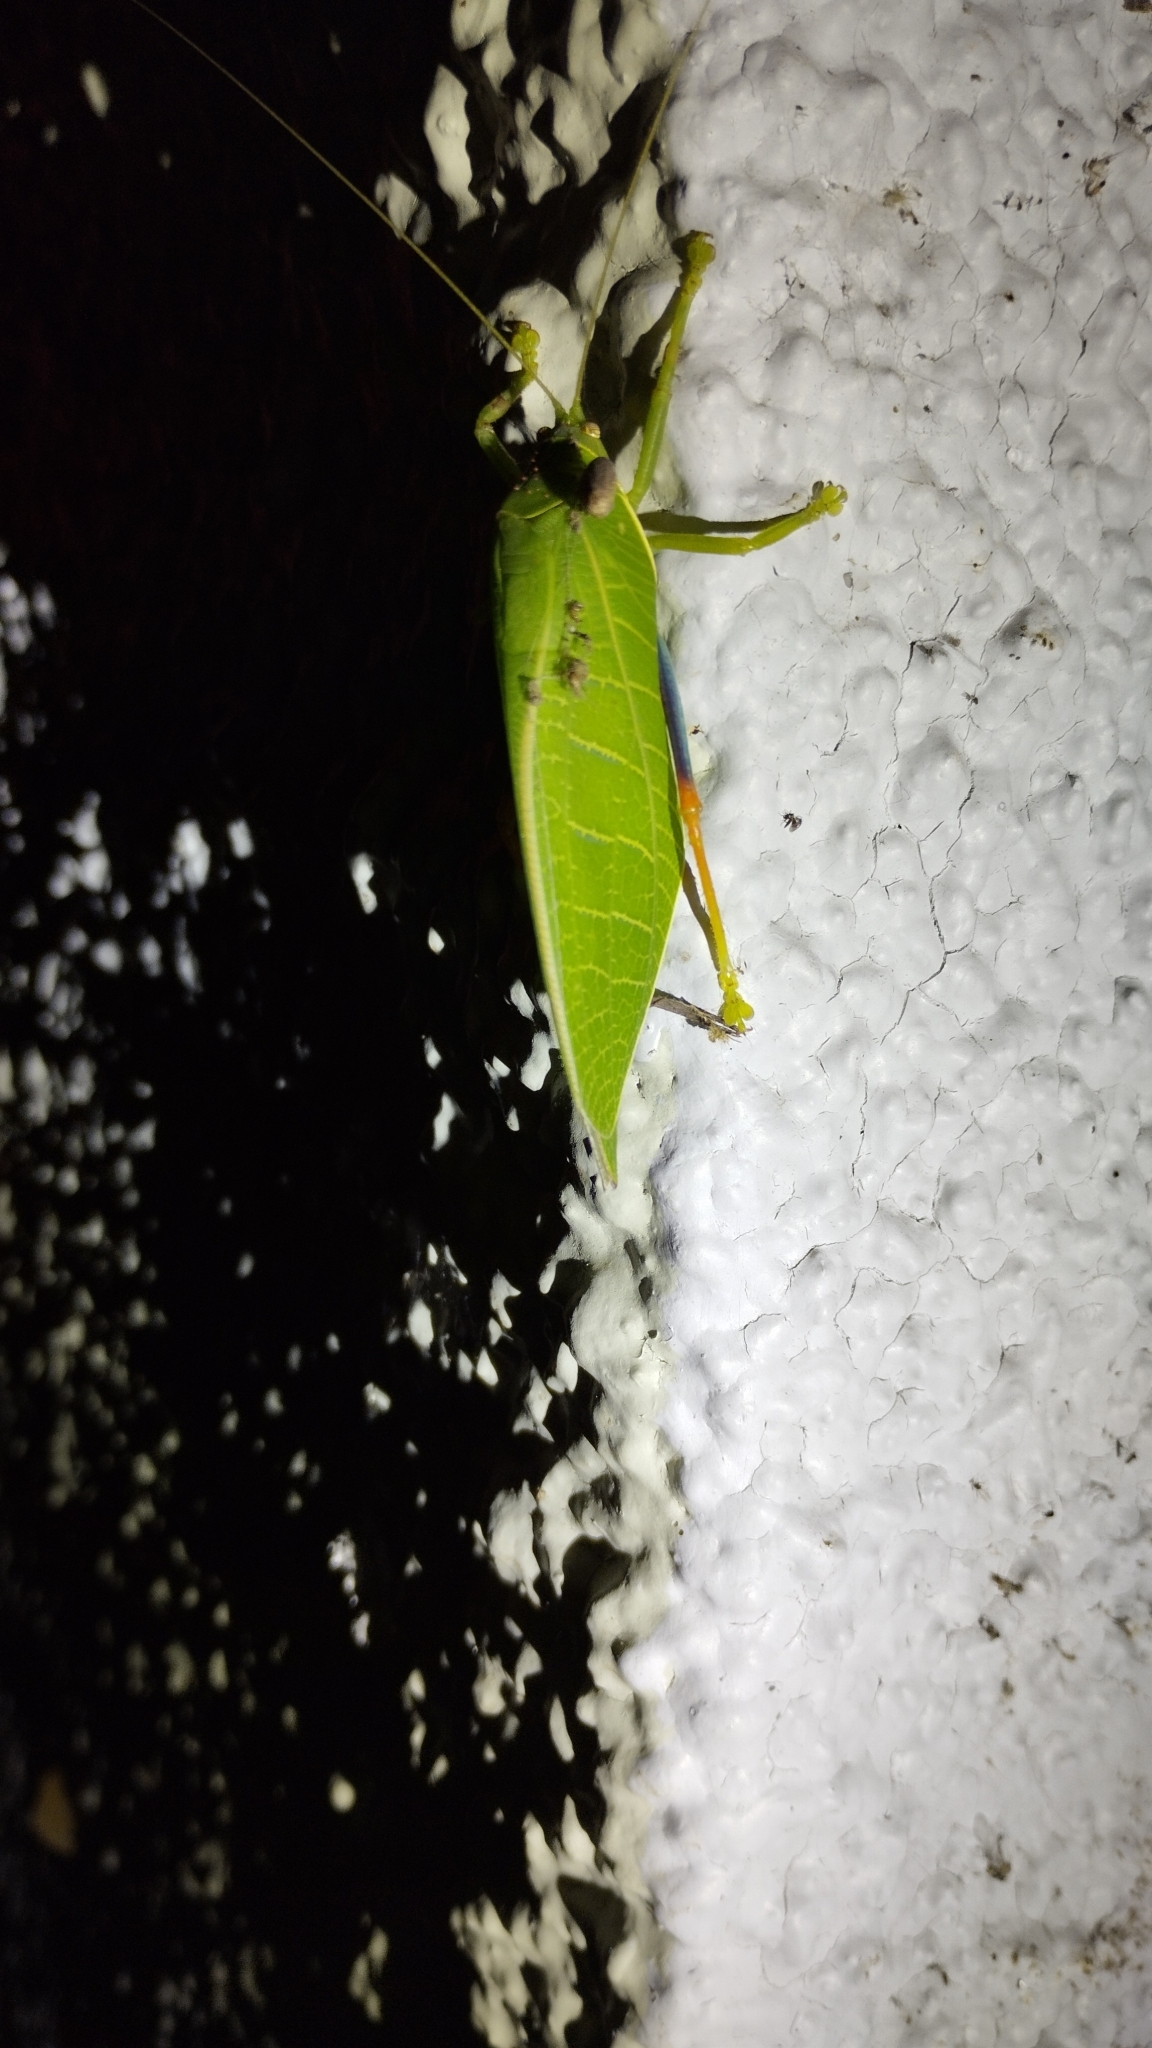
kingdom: Animalia
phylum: Arthropoda
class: Insecta
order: Orthoptera
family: Tettigoniidae
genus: Zabalius
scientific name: Zabalius ophthalmicus
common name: Blue-legged sylvan katydid
